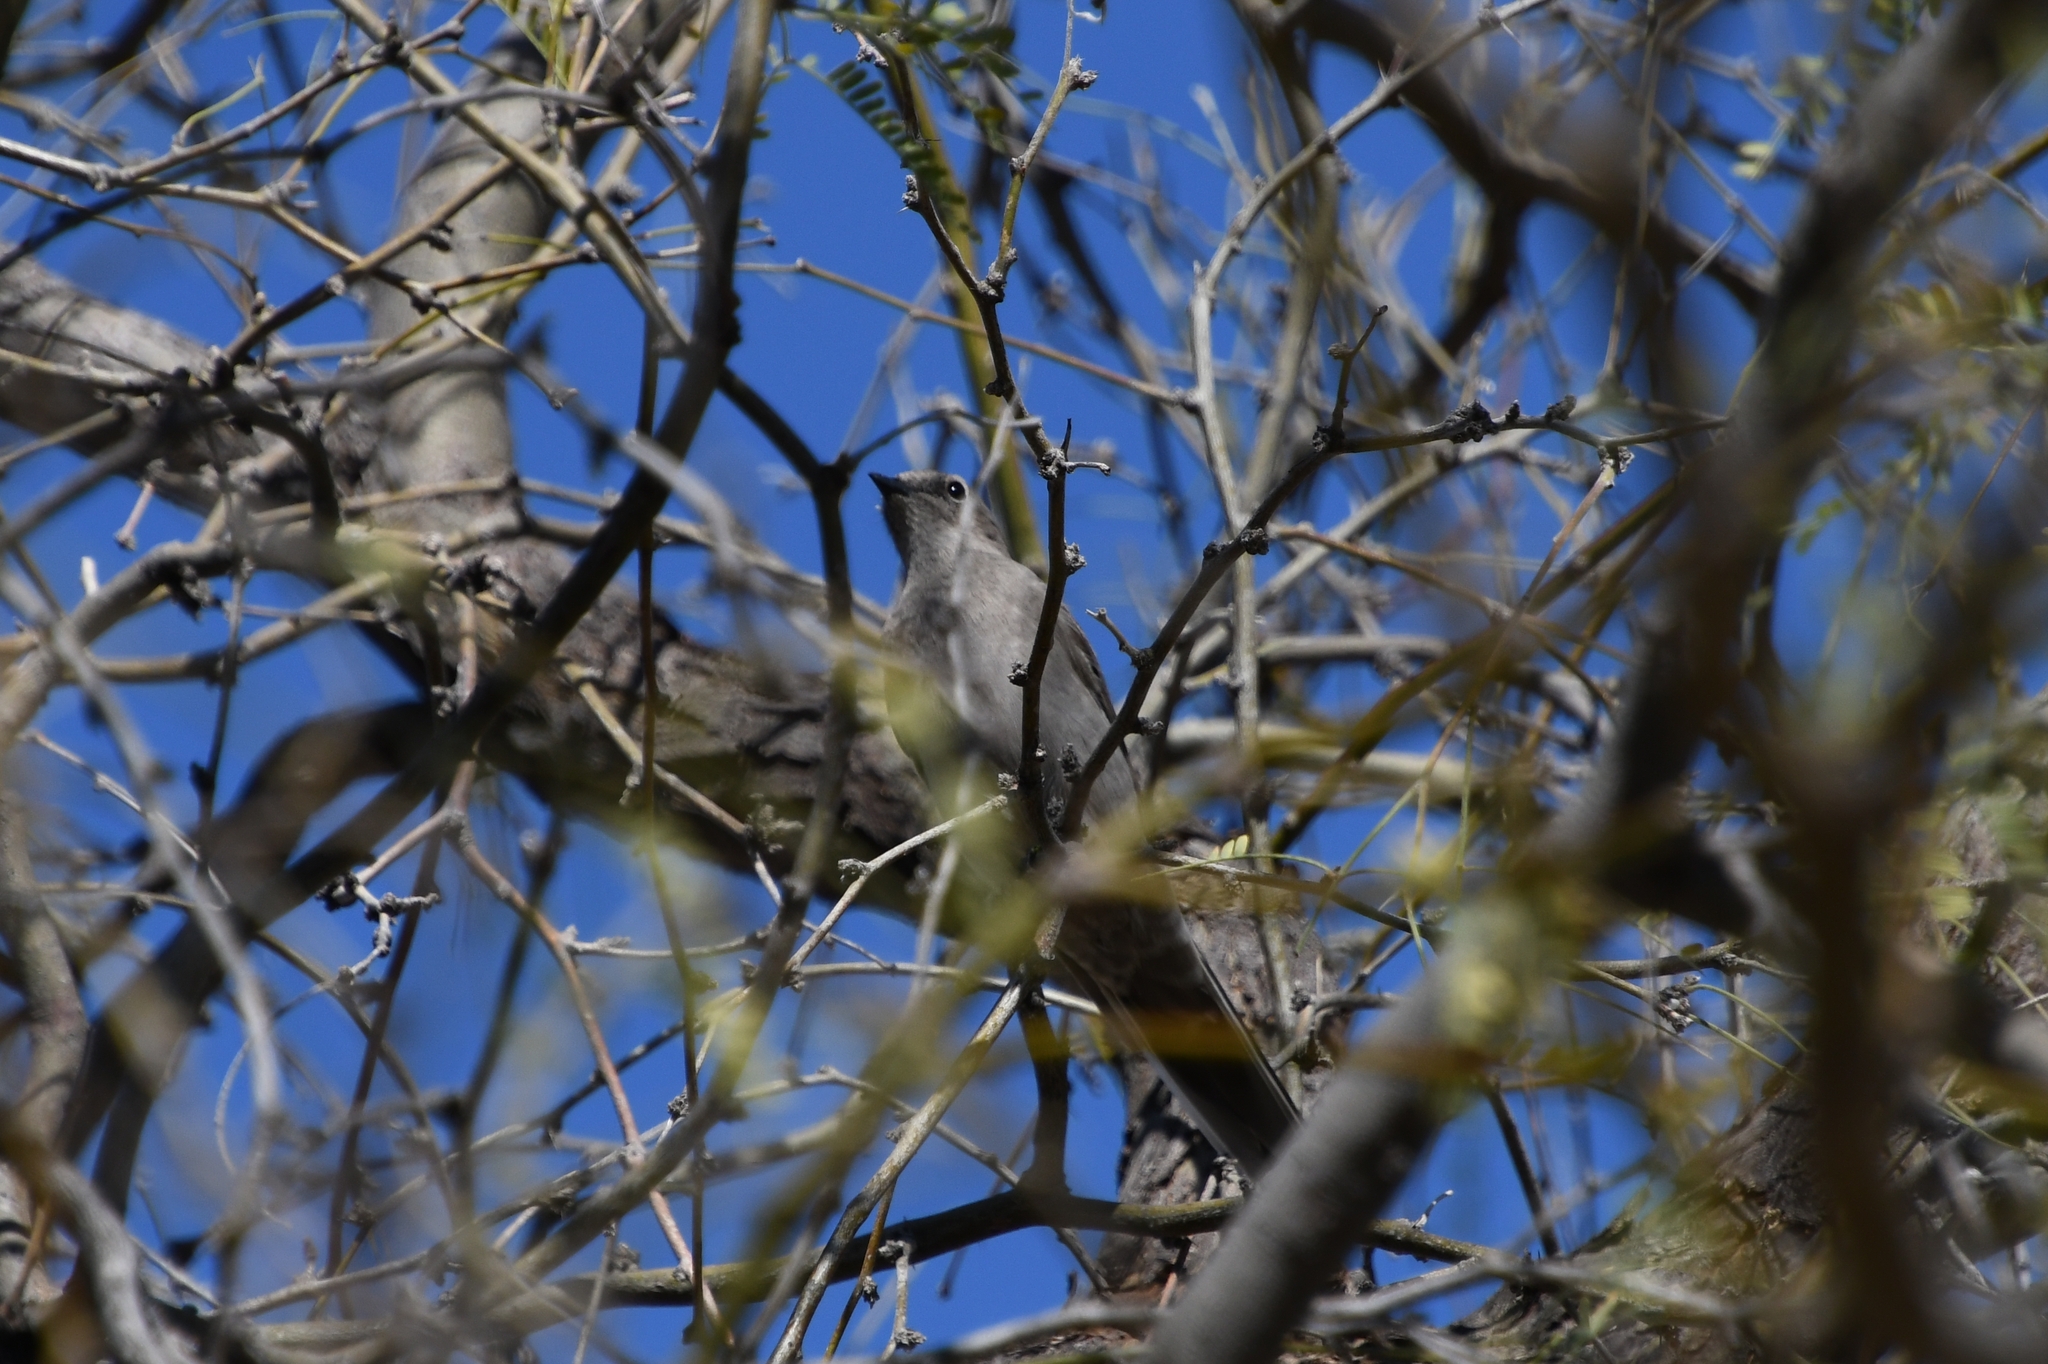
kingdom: Animalia
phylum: Chordata
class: Aves
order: Passeriformes
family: Turdidae
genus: Myadestes
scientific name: Myadestes townsendi
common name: Townsend's solitaire
